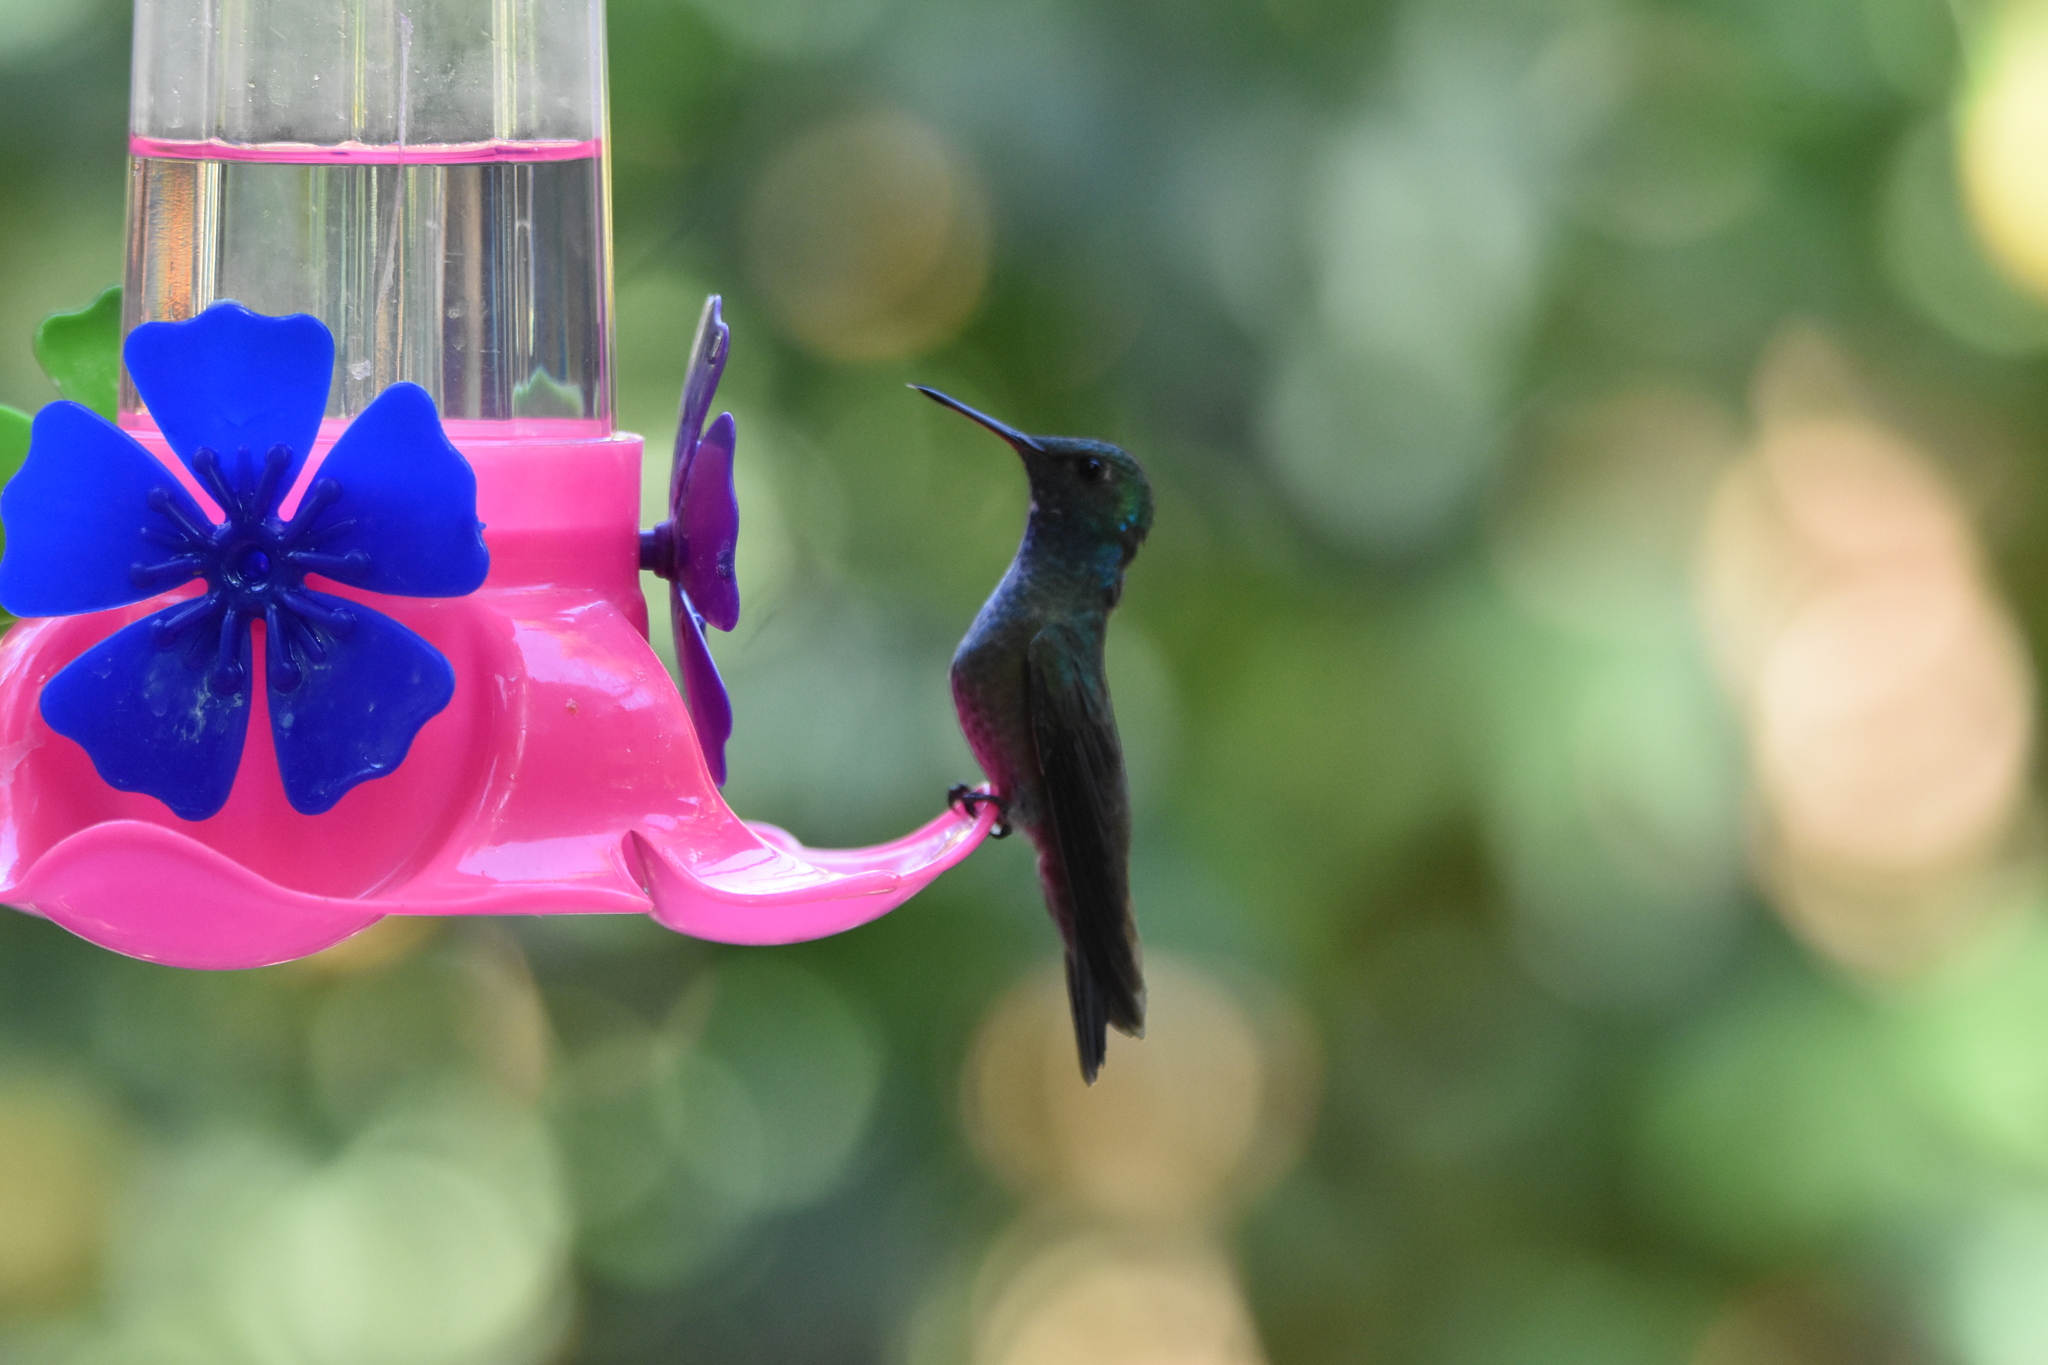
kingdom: Animalia
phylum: Chordata
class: Aves
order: Apodiformes
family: Trochilidae
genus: Chrysuronia
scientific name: Chrysuronia versicolor
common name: Versicolored emerald
